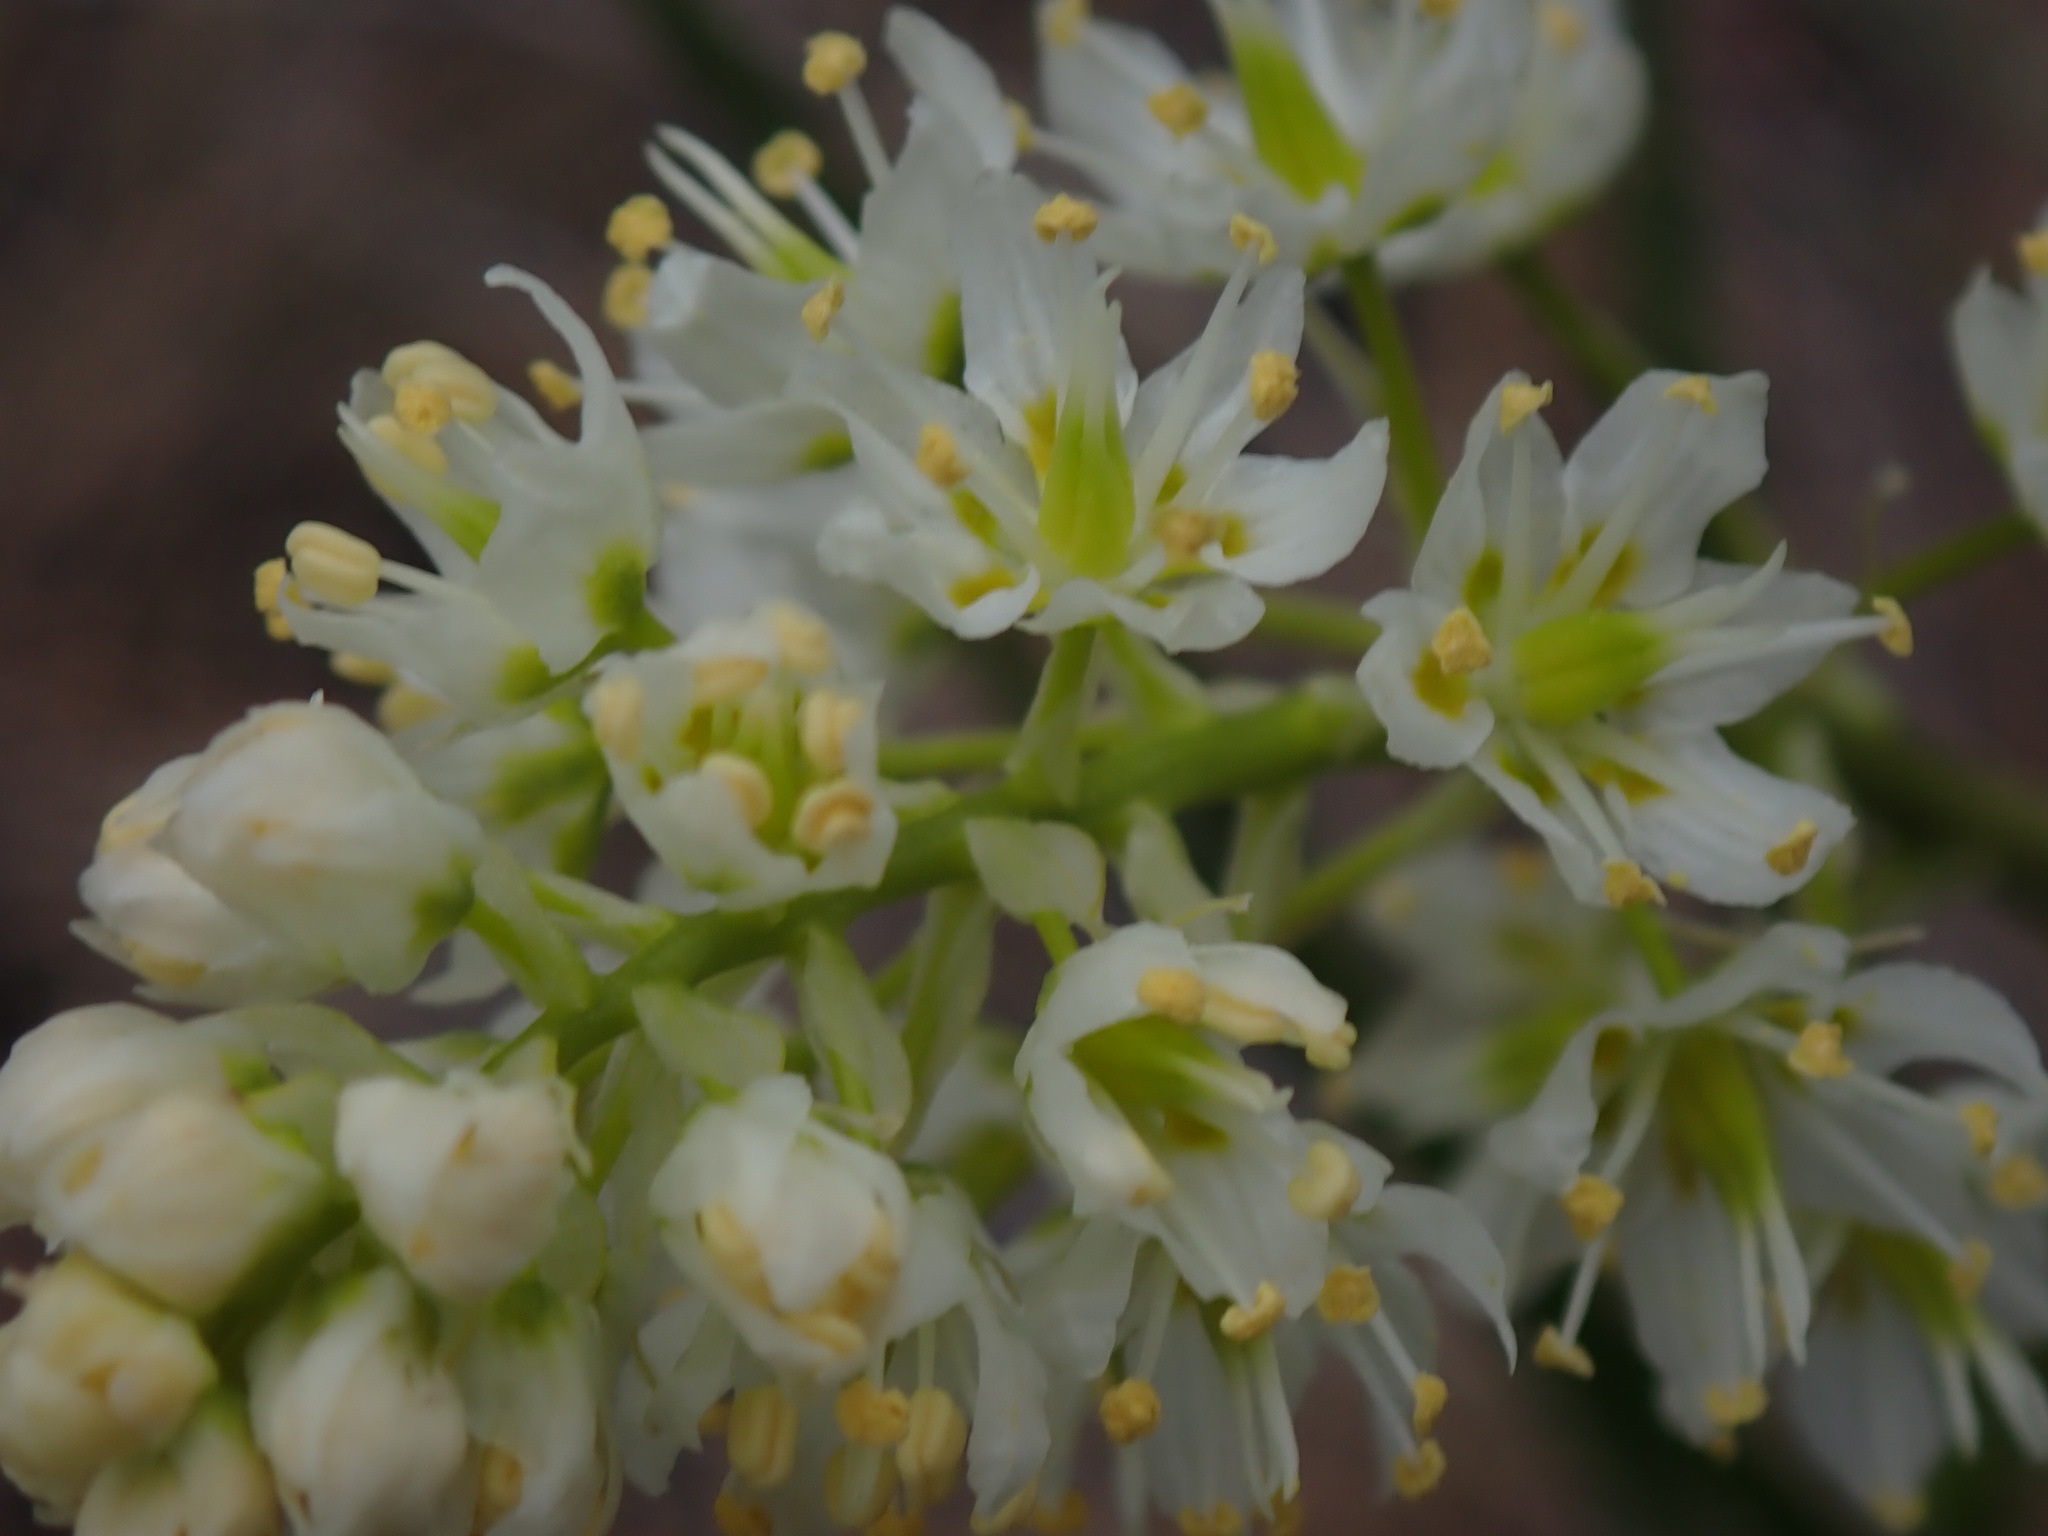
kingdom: Plantae
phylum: Tracheophyta
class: Liliopsida
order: Liliales
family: Melanthiaceae
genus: Toxicoscordion
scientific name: Toxicoscordion venenosum
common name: Meadow death camas
